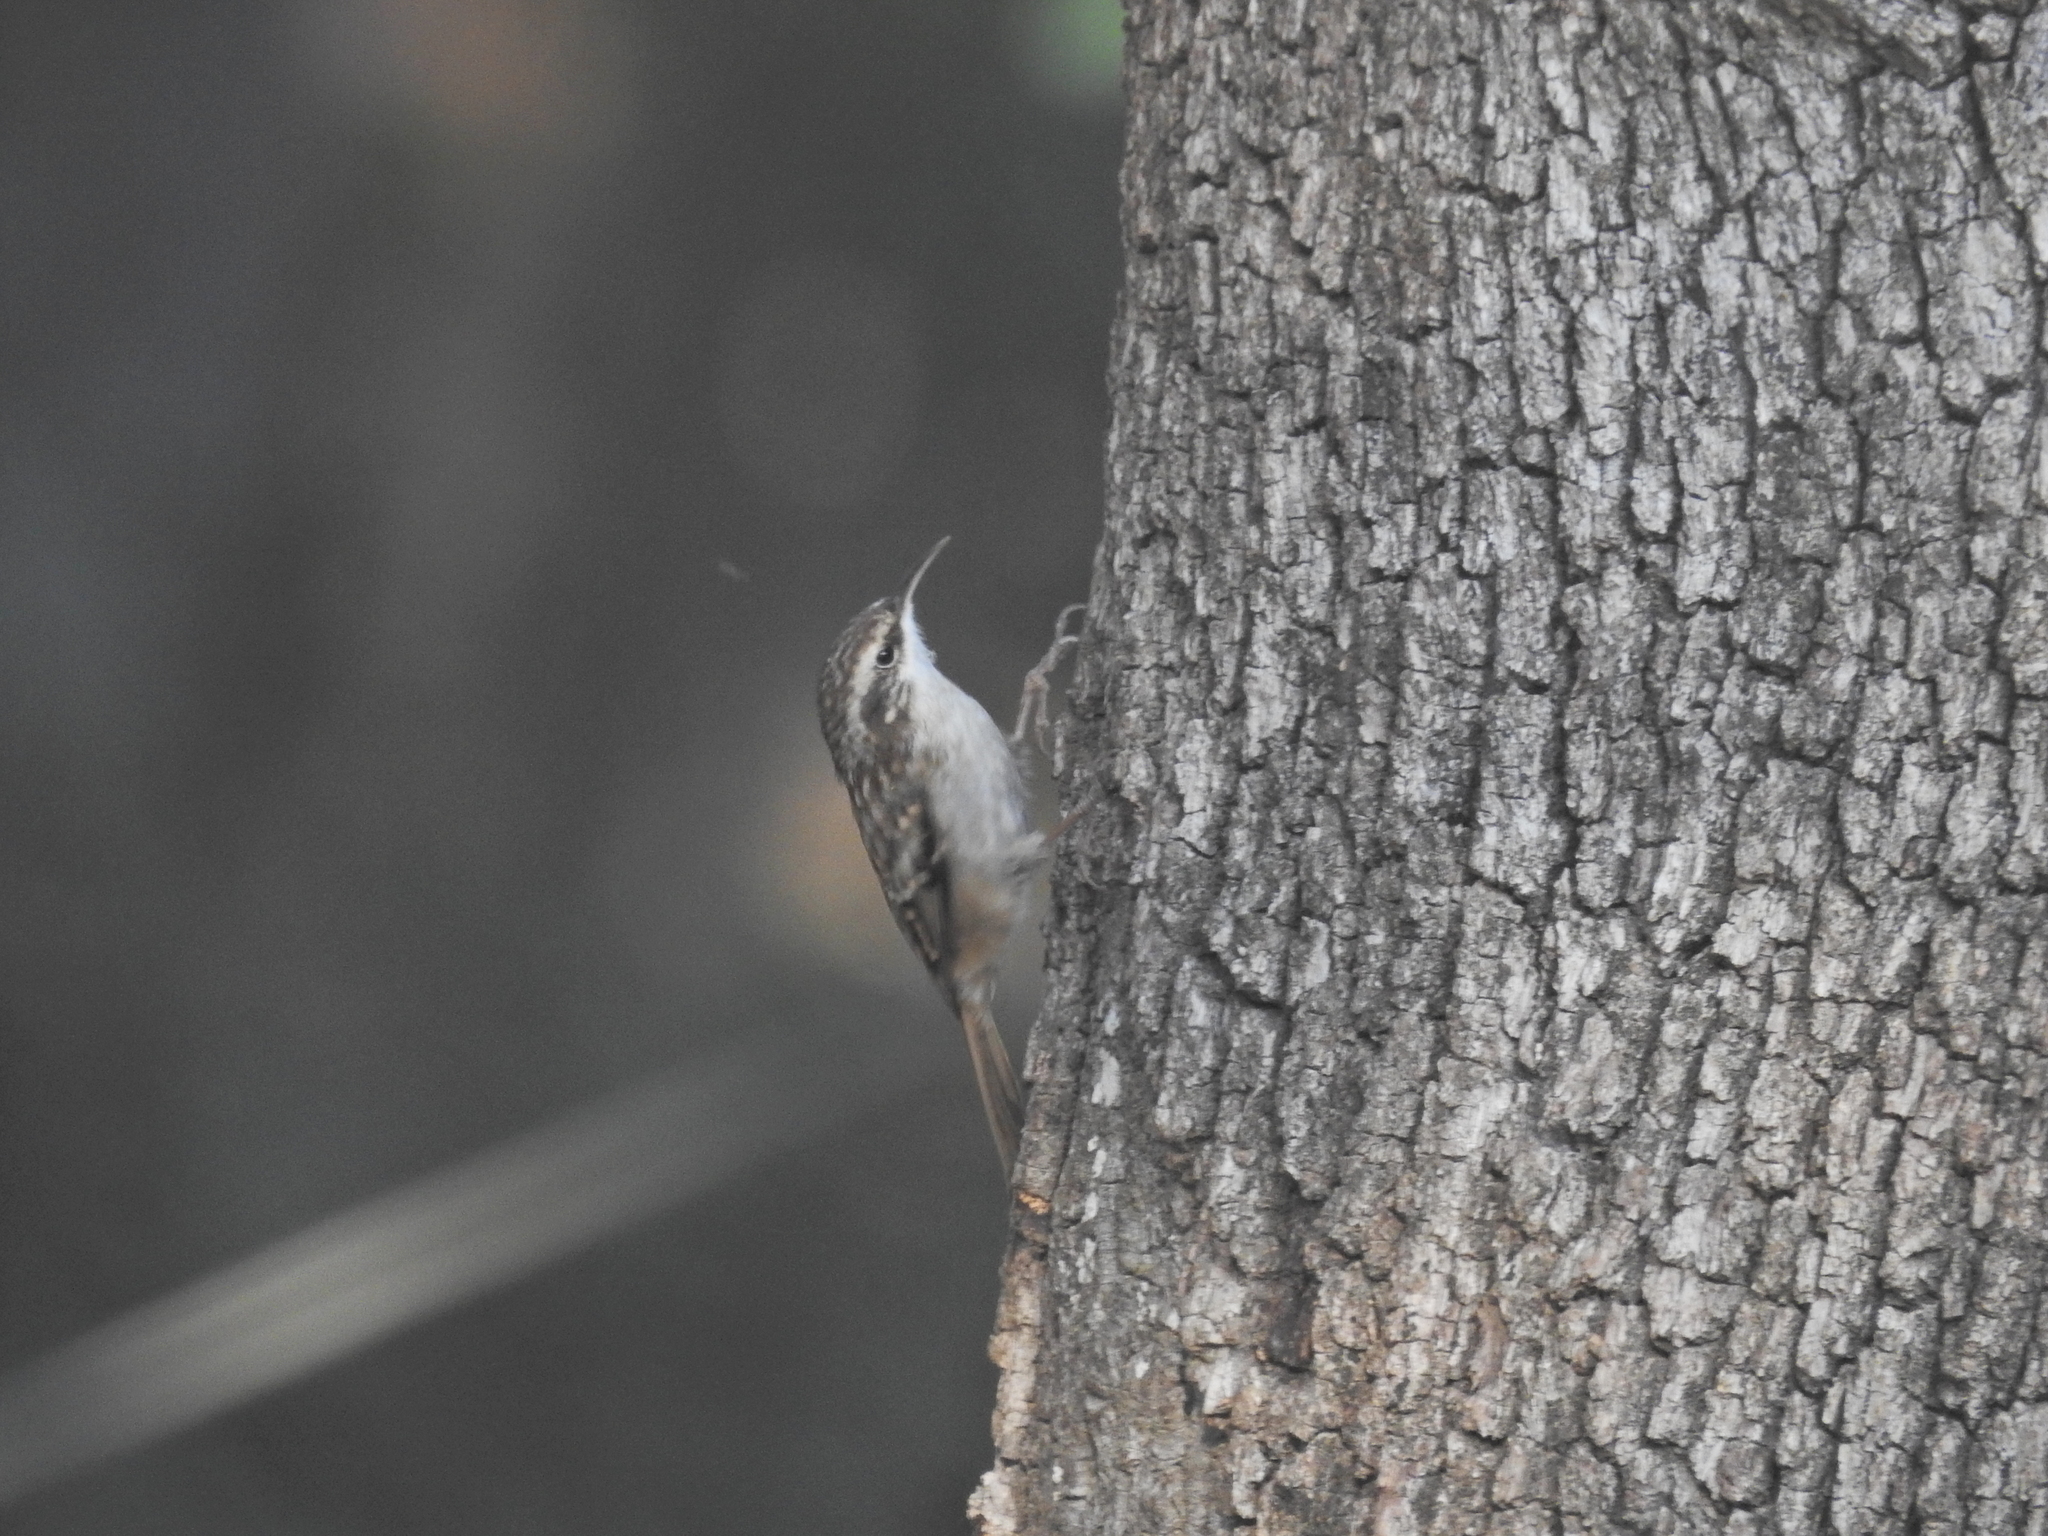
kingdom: Animalia
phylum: Chordata
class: Aves
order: Passeriformes
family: Certhiidae
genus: Certhia
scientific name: Certhia brachydactyla
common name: Short-toed treecreeper
